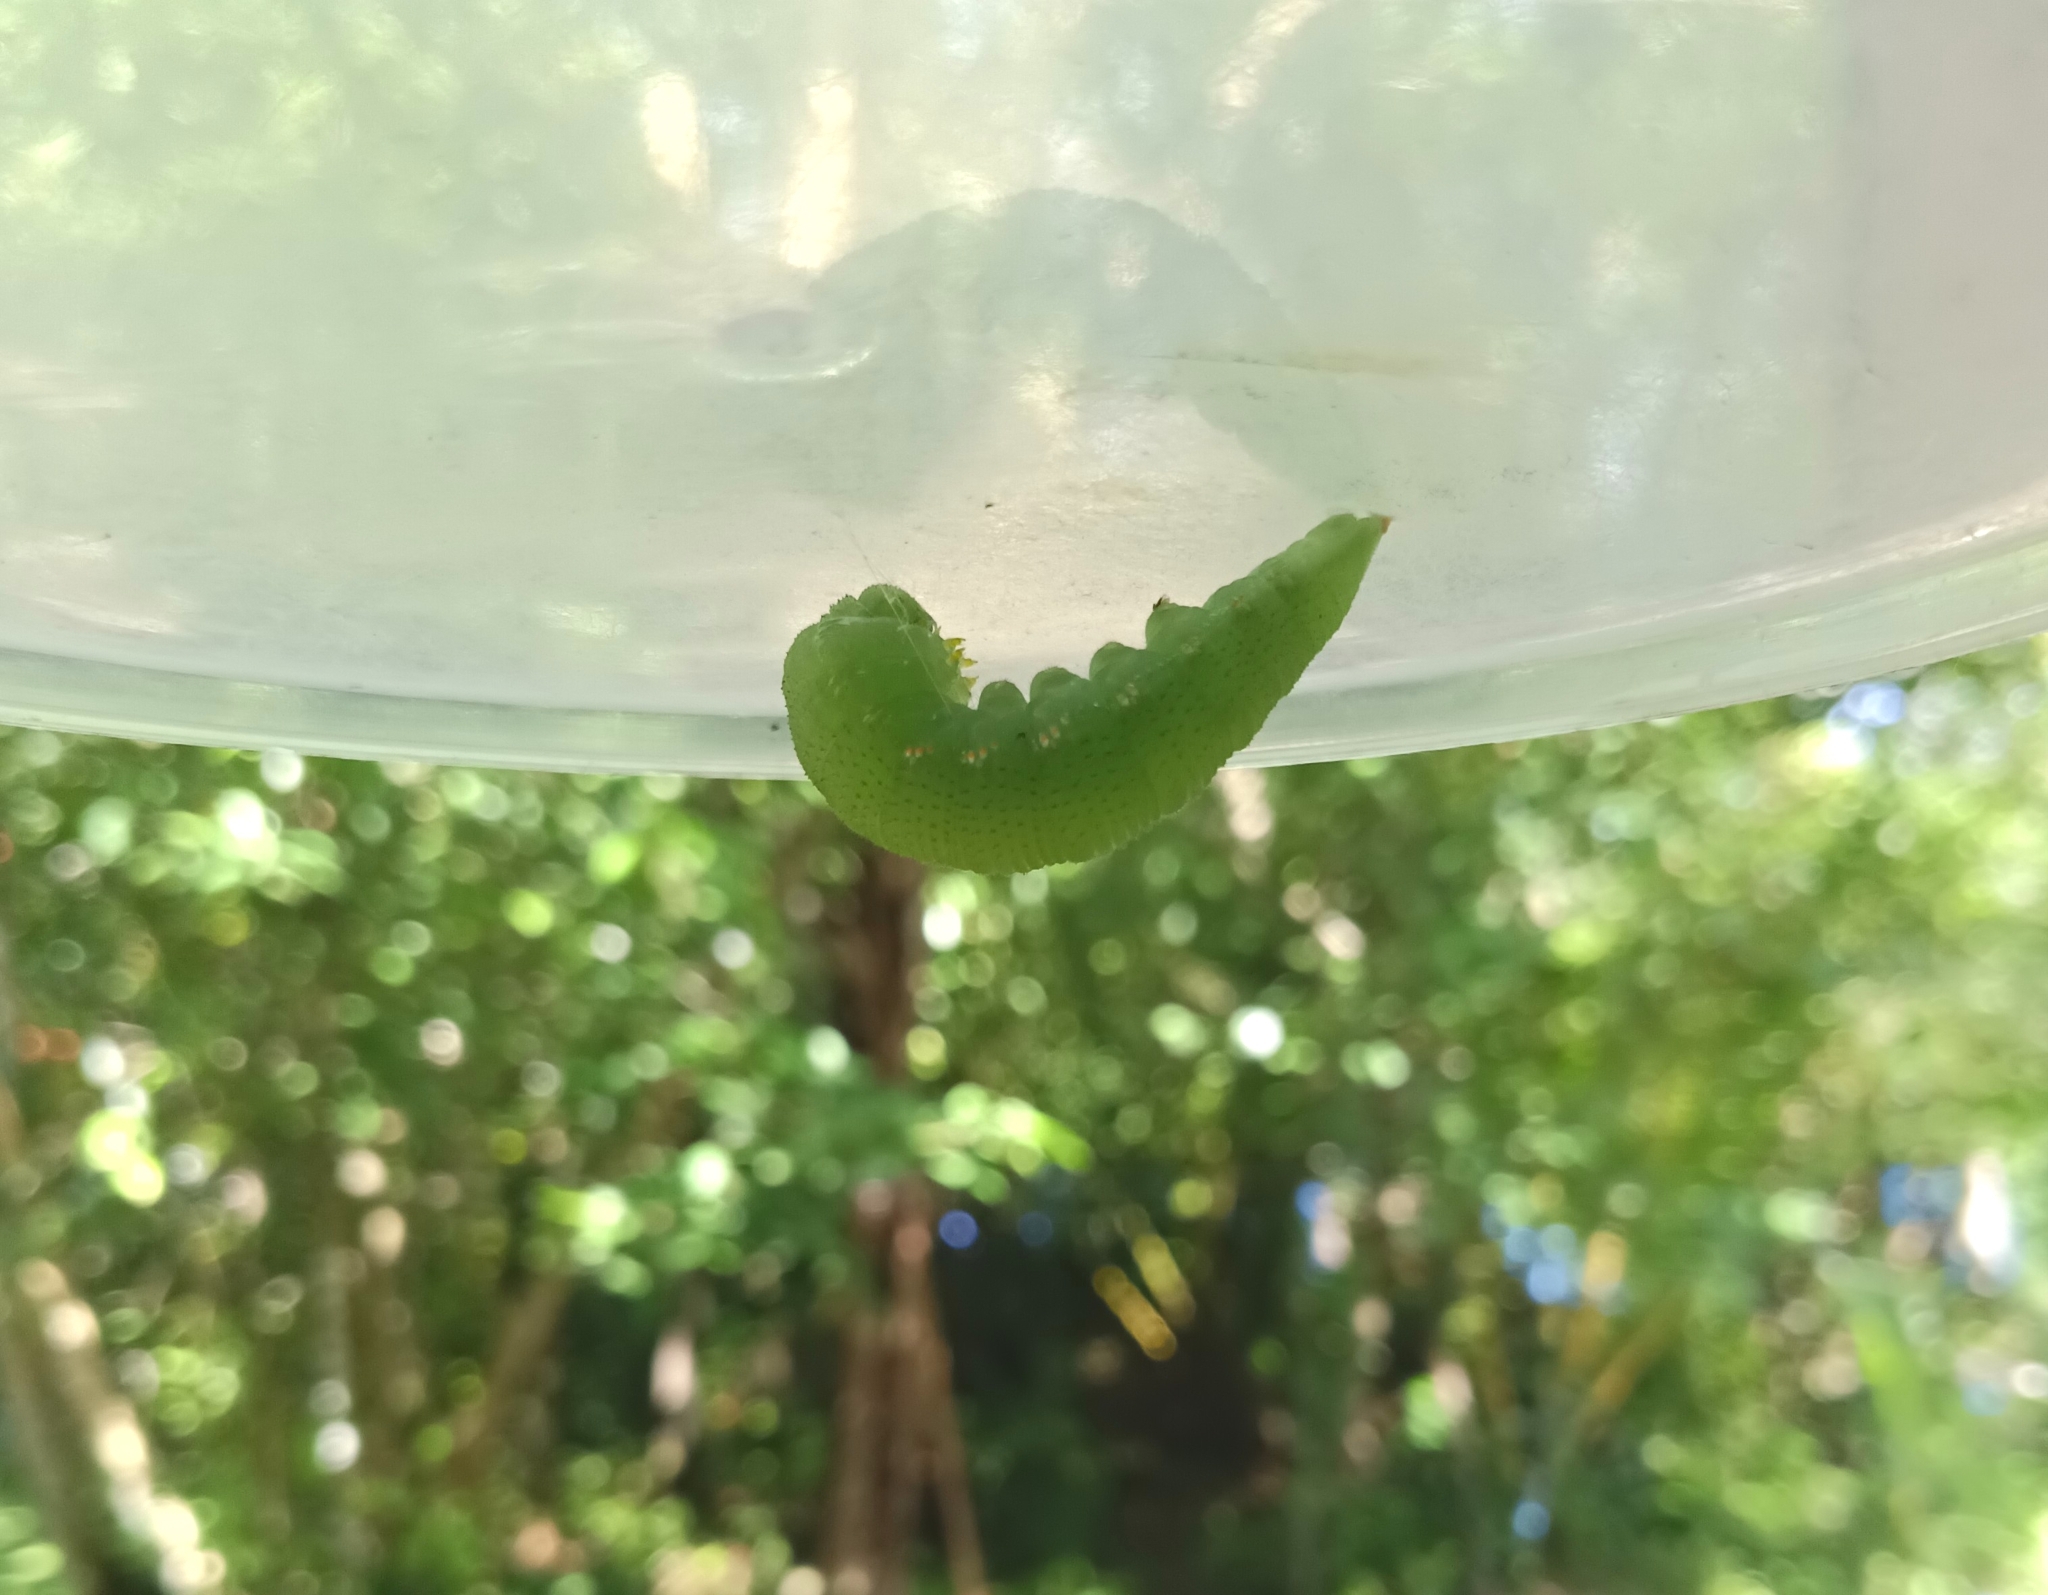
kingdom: Animalia
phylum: Arthropoda
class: Insecta
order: Lepidoptera
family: Pieridae
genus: Hebomoia
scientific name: Hebomoia glaucippe
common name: Great orange tip
